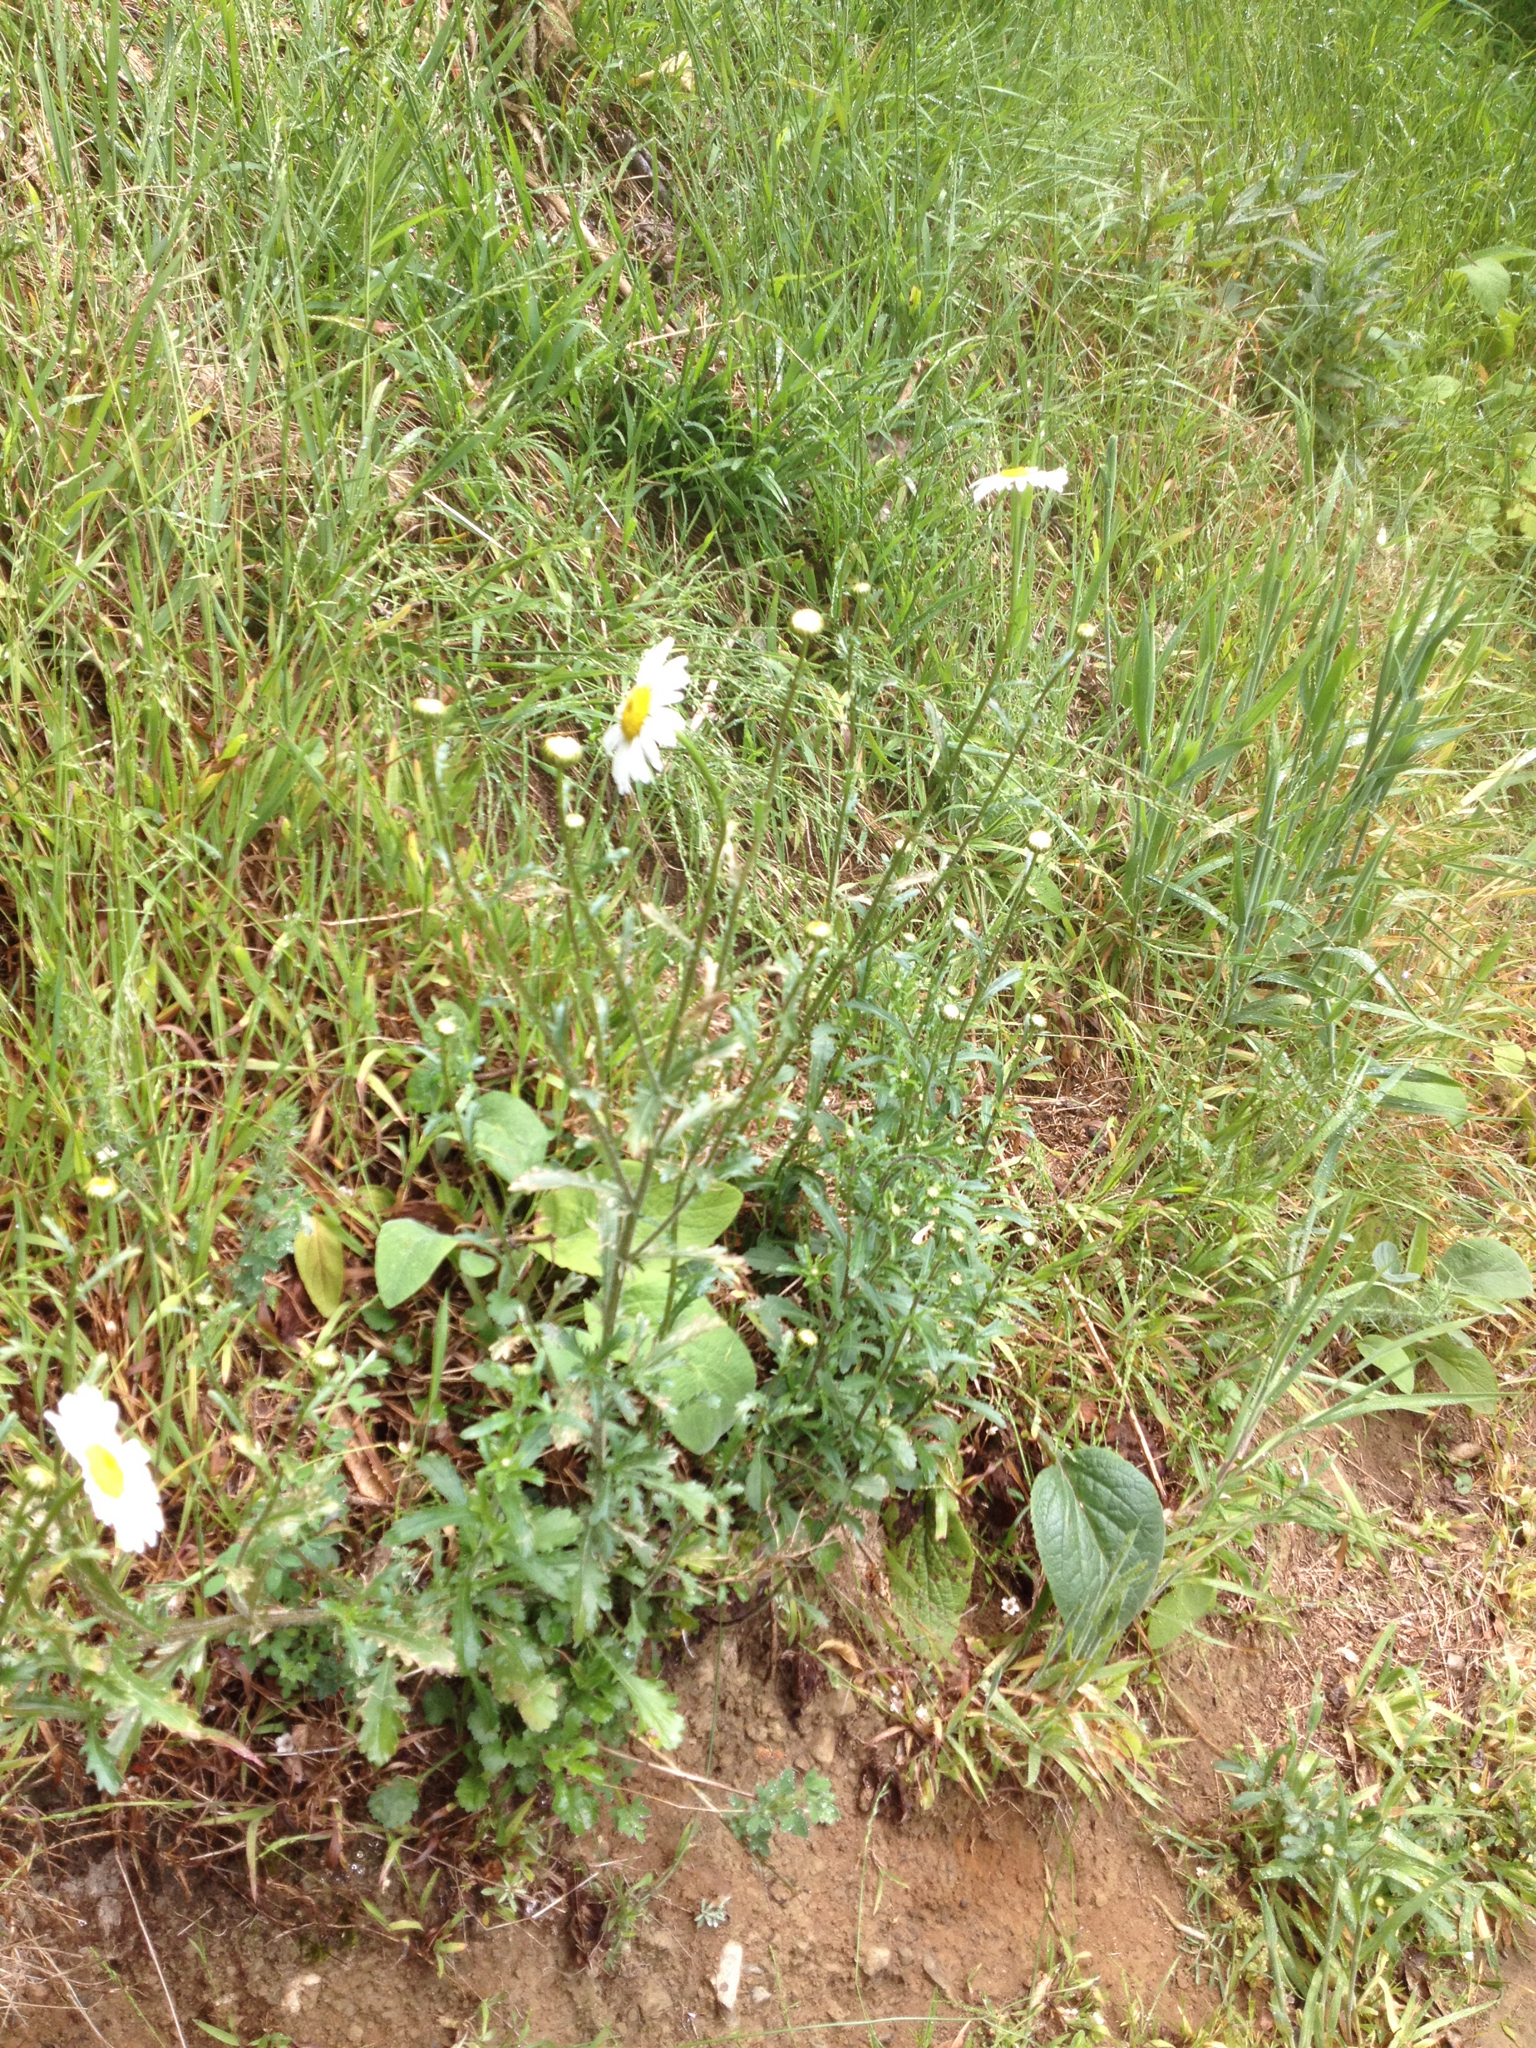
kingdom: Plantae
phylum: Tracheophyta
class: Magnoliopsida
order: Asterales
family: Asteraceae
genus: Leucanthemum
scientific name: Leucanthemum vulgare
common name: Oxeye daisy
